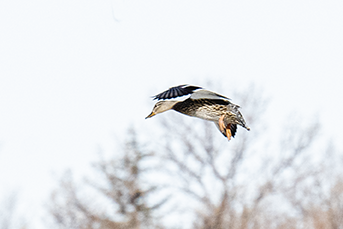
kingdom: Animalia
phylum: Chordata
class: Aves
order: Anseriformes
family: Anatidae
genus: Anas
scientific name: Anas platyrhynchos
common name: Mallard
